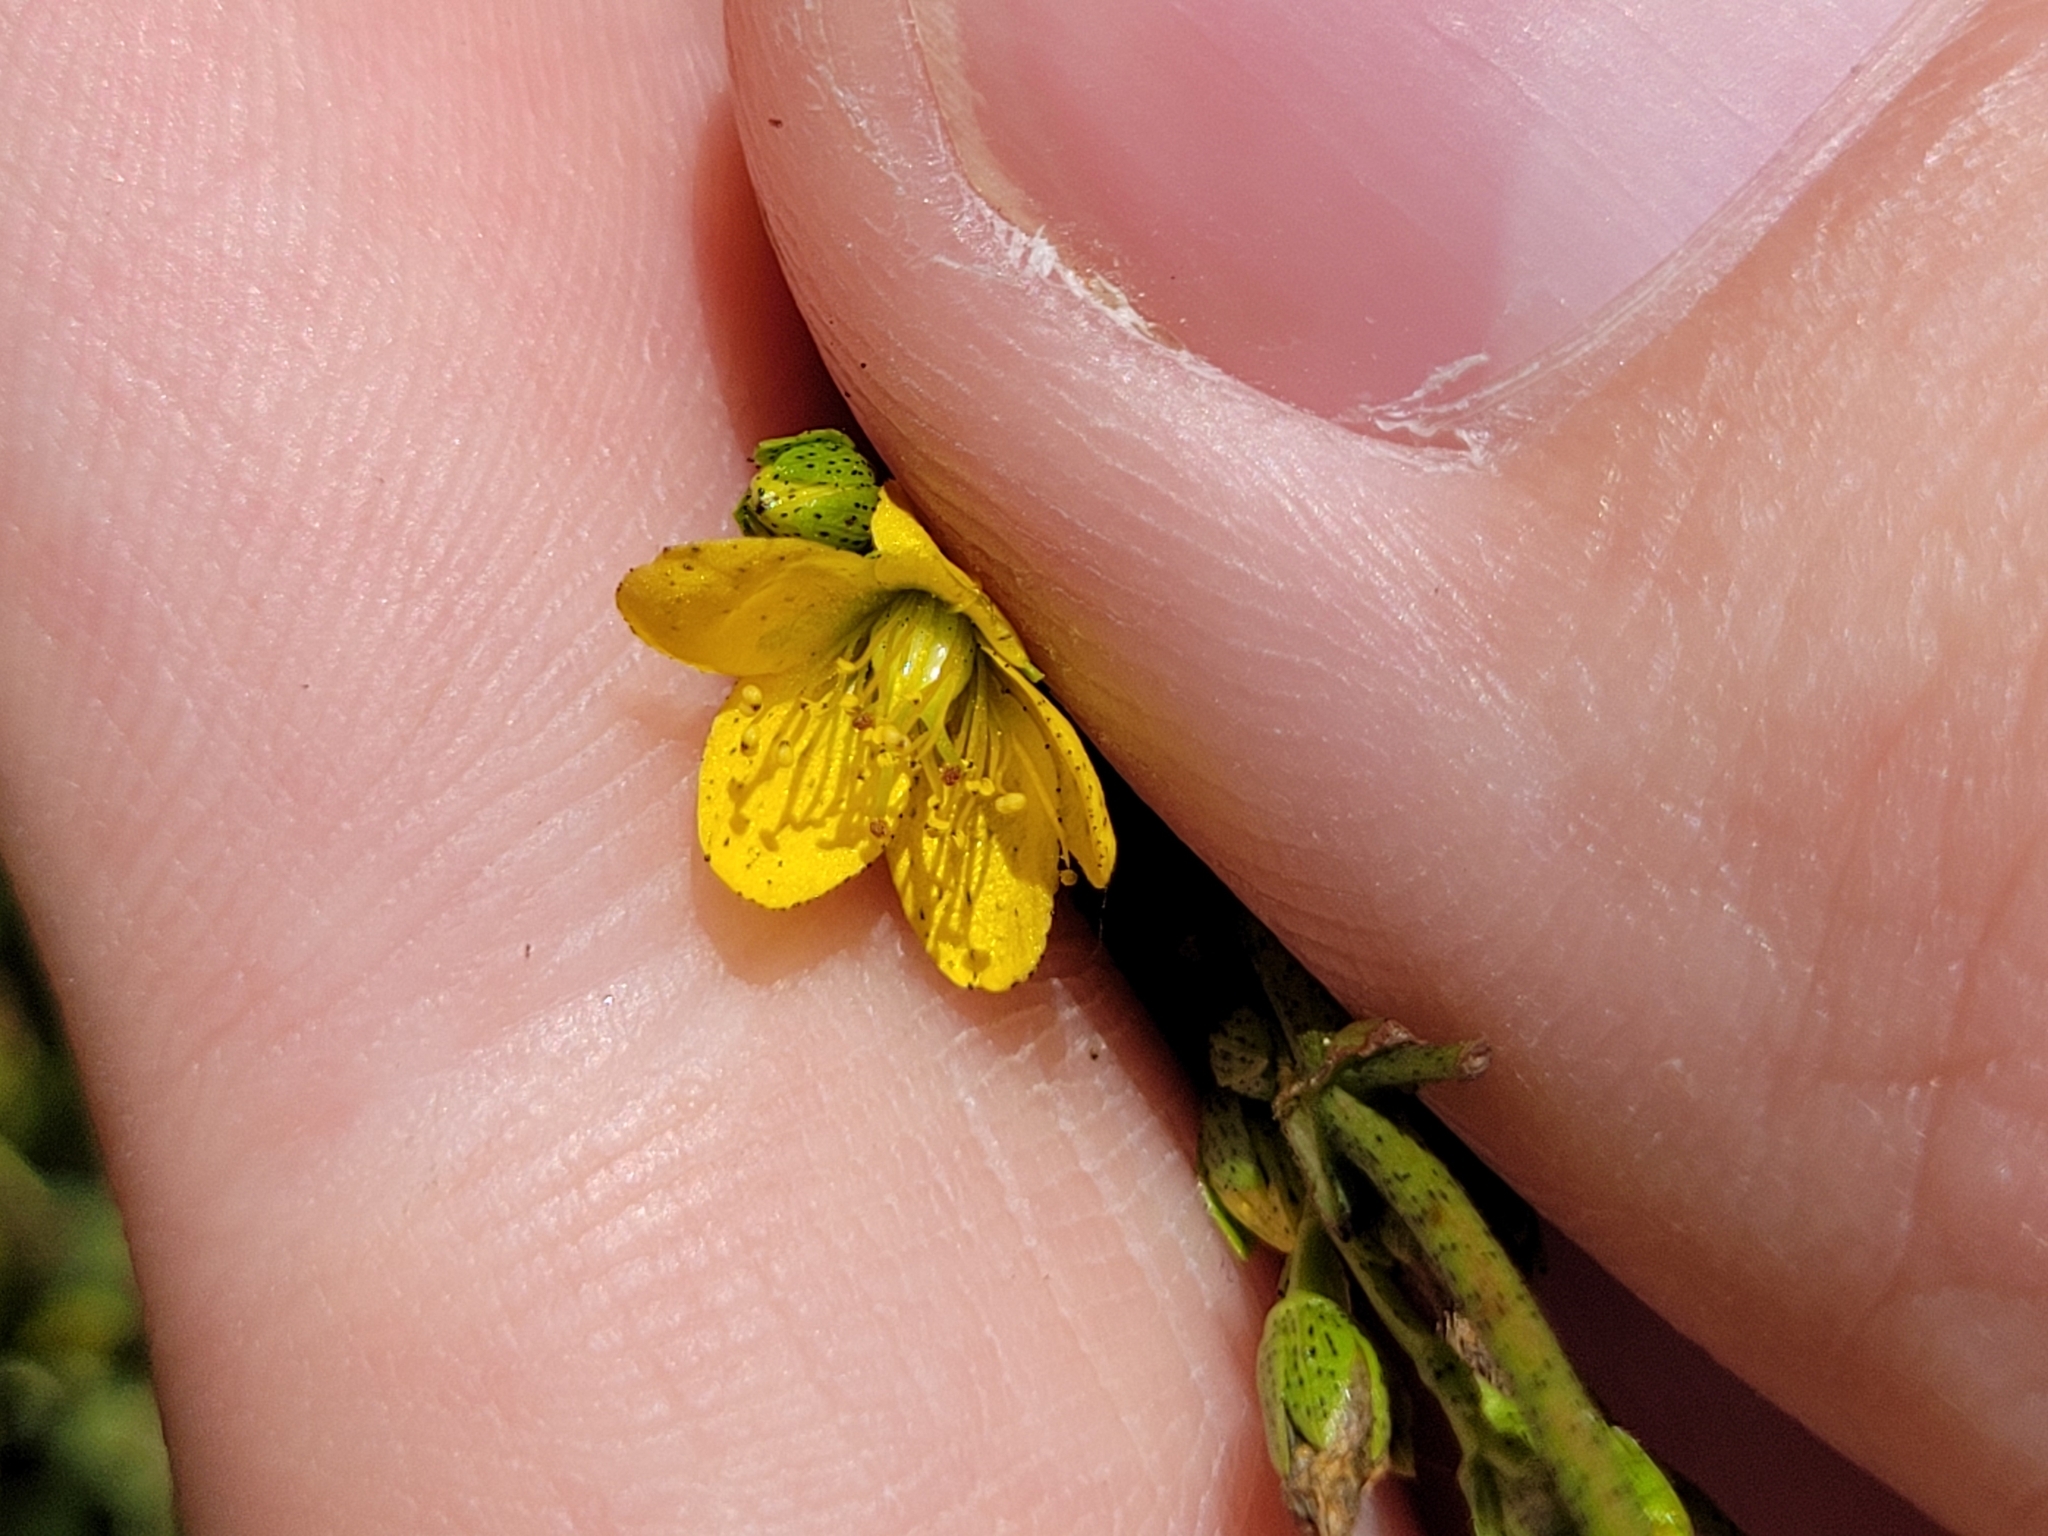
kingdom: Plantae
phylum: Tracheophyta
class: Magnoliopsida
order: Malpighiales
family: Hypericaceae
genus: Hypericum
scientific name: Hypericum punctatum
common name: Spotted st. john's-wort
